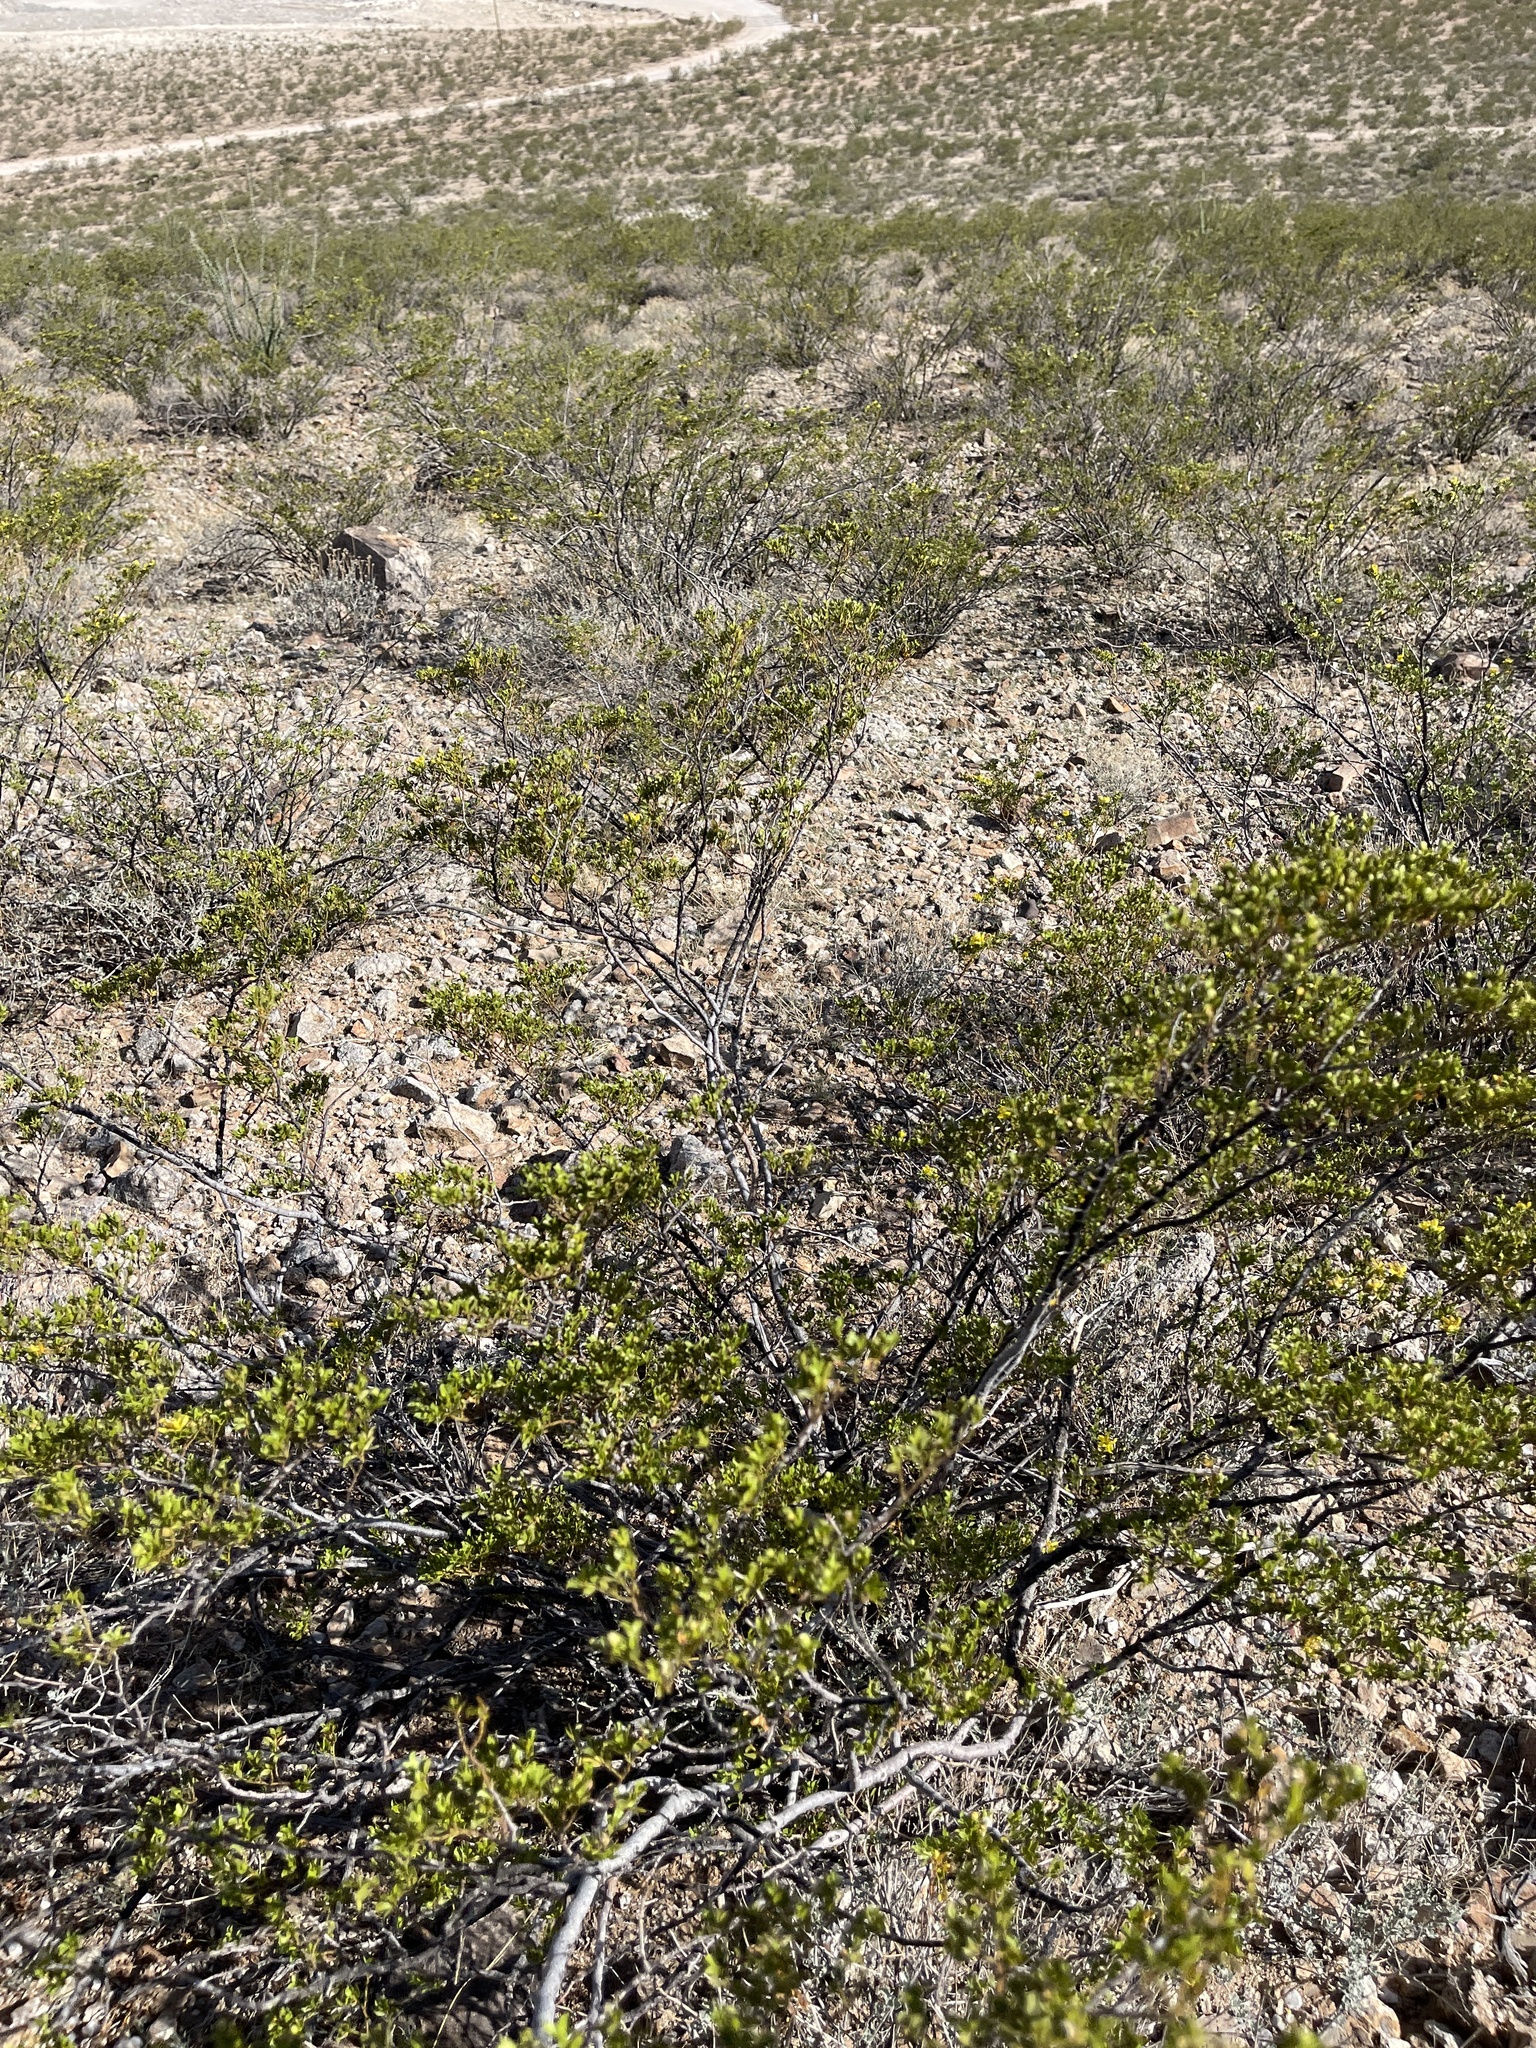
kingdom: Plantae
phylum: Tracheophyta
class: Magnoliopsida
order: Zygophyllales
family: Zygophyllaceae
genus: Larrea
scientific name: Larrea tridentata
